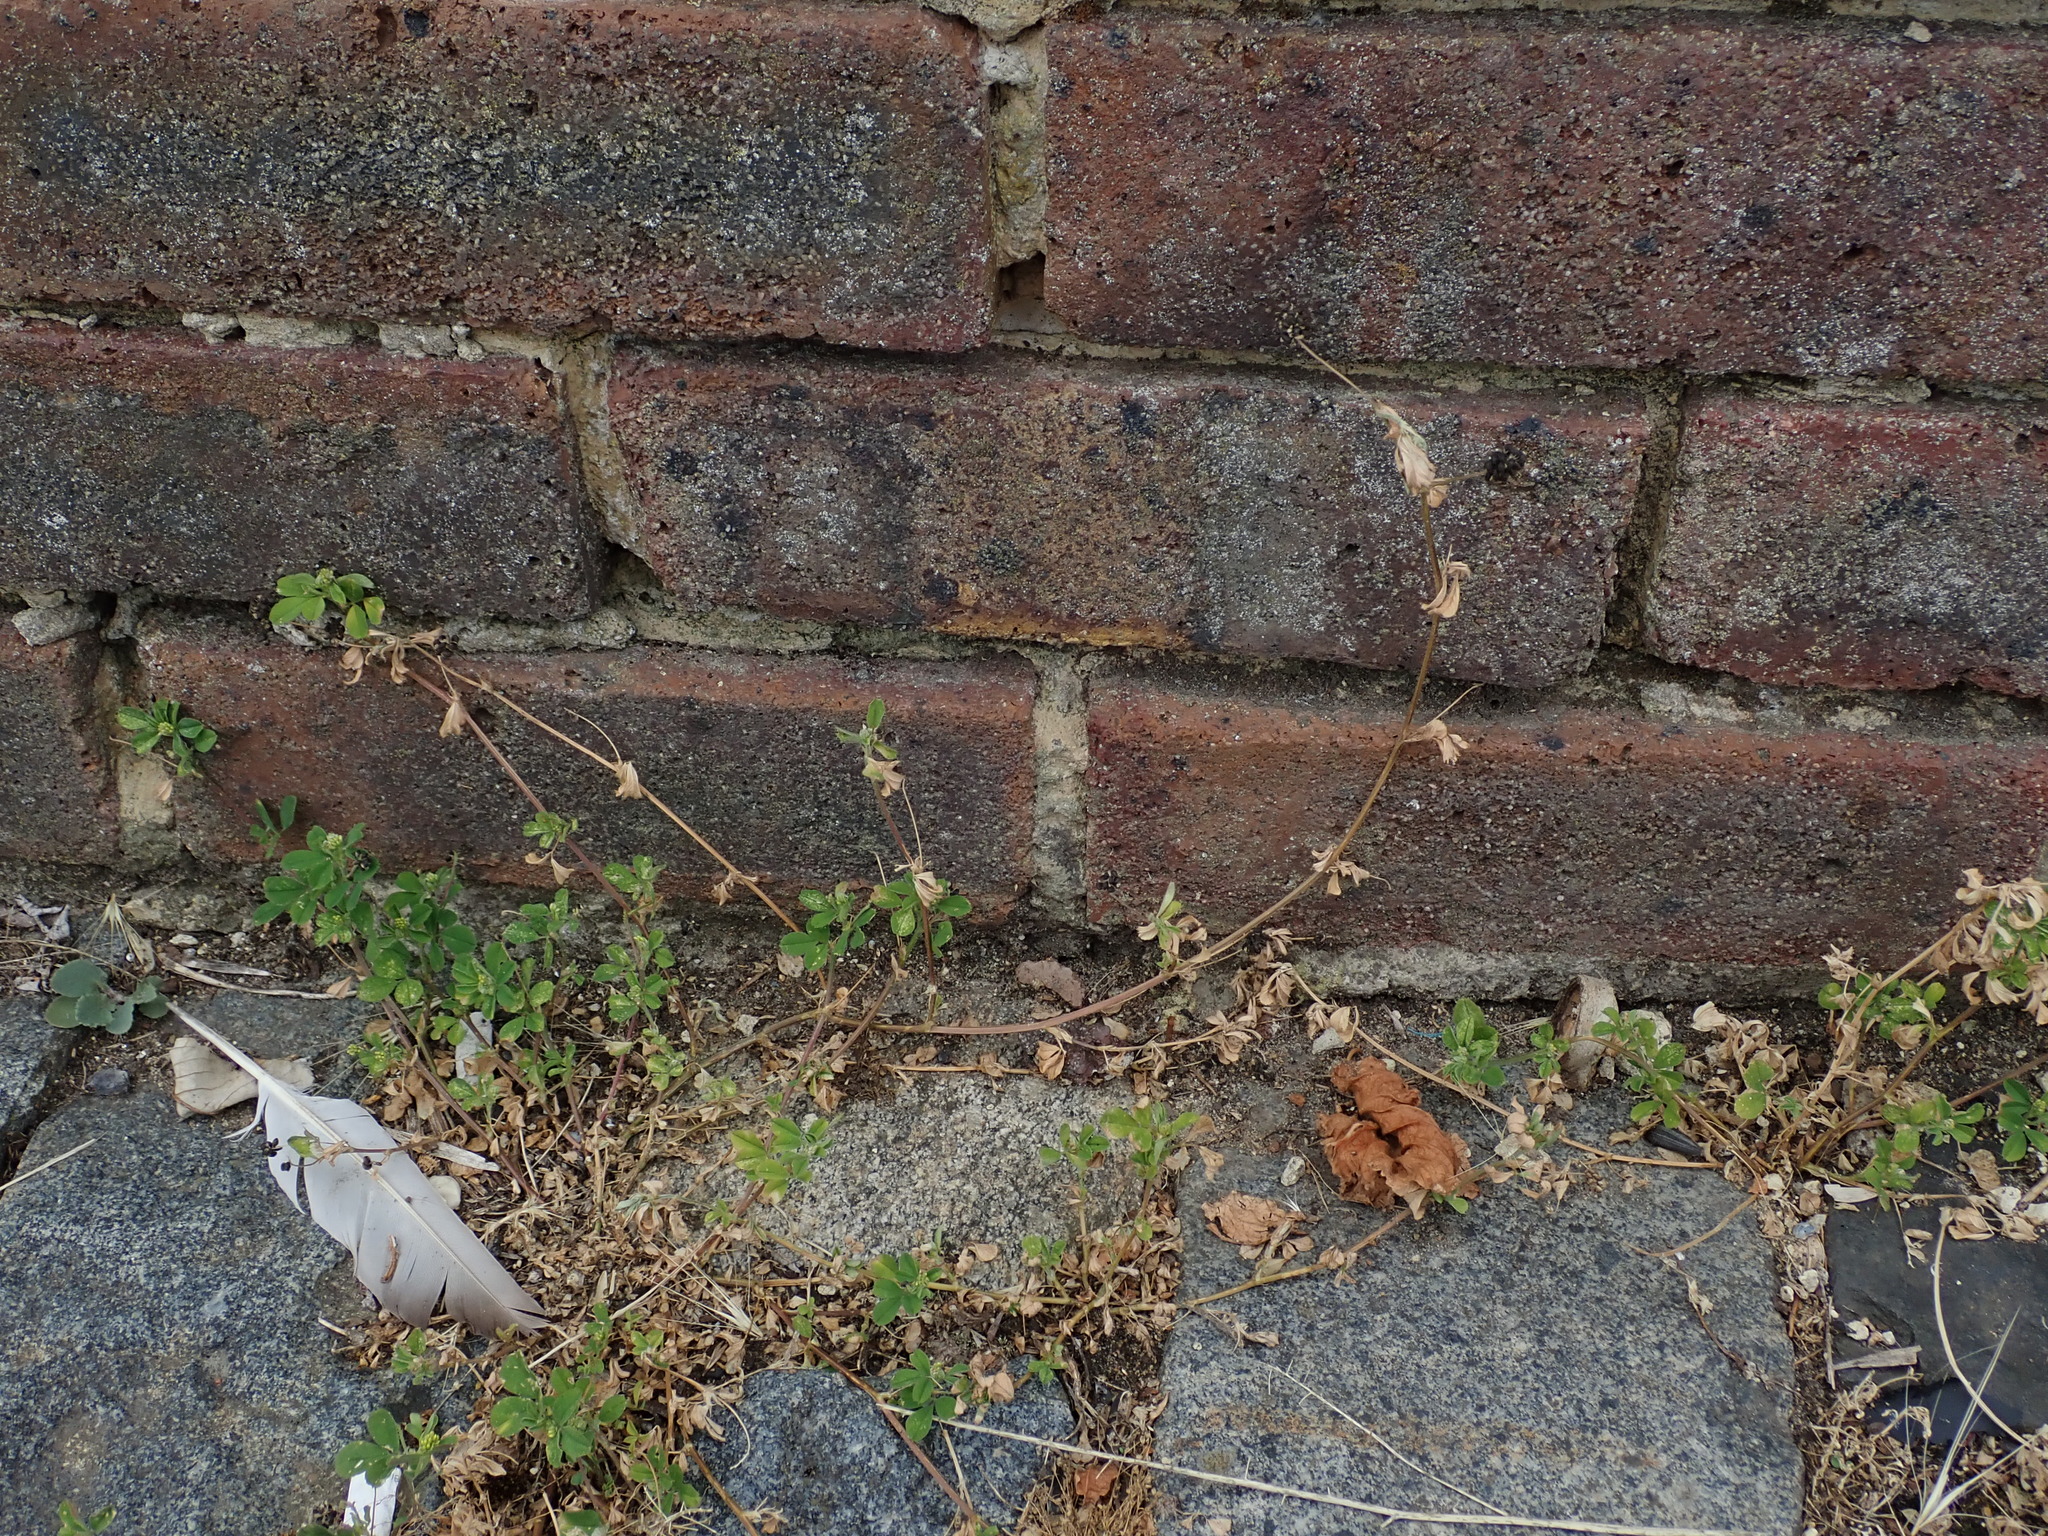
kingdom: Plantae
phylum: Tracheophyta
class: Magnoliopsida
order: Fabales
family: Fabaceae
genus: Medicago
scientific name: Medicago lupulina
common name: Black medick
